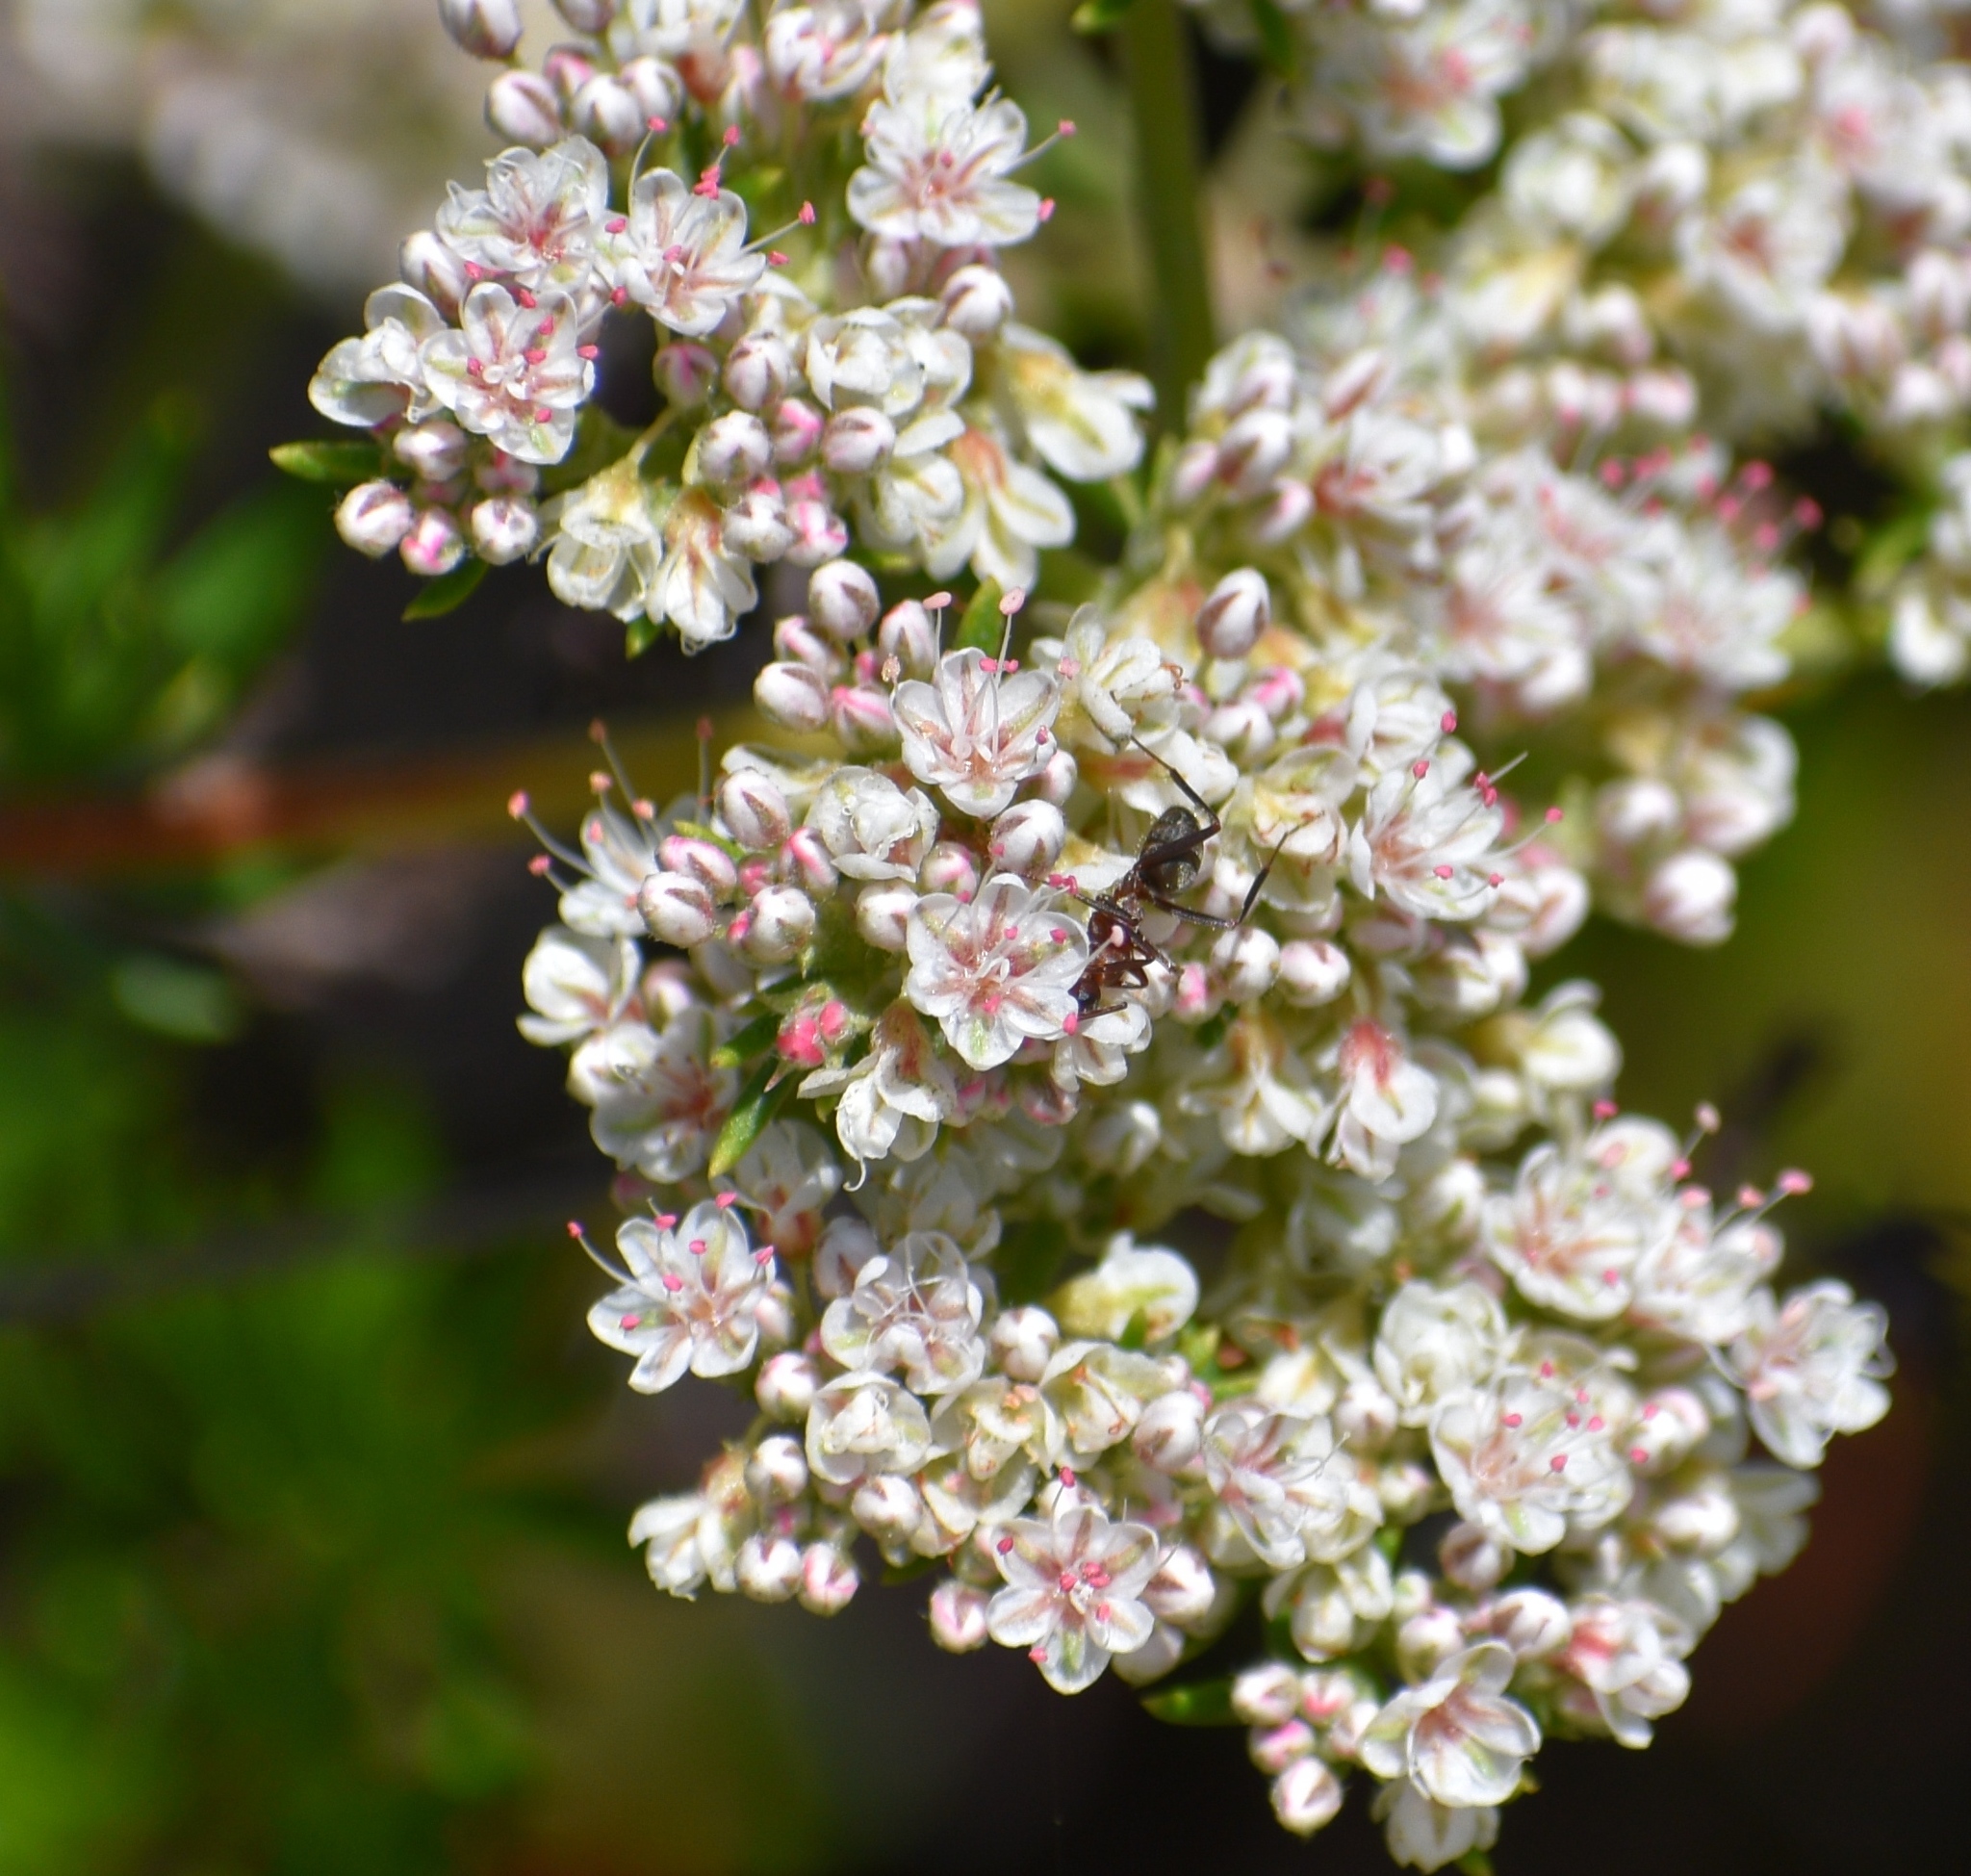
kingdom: Plantae
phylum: Tracheophyta
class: Magnoliopsida
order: Caryophyllales
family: Polygonaceae
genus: Eriogonum
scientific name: Eriogonum fasciculatum
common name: California wild buckwheat
